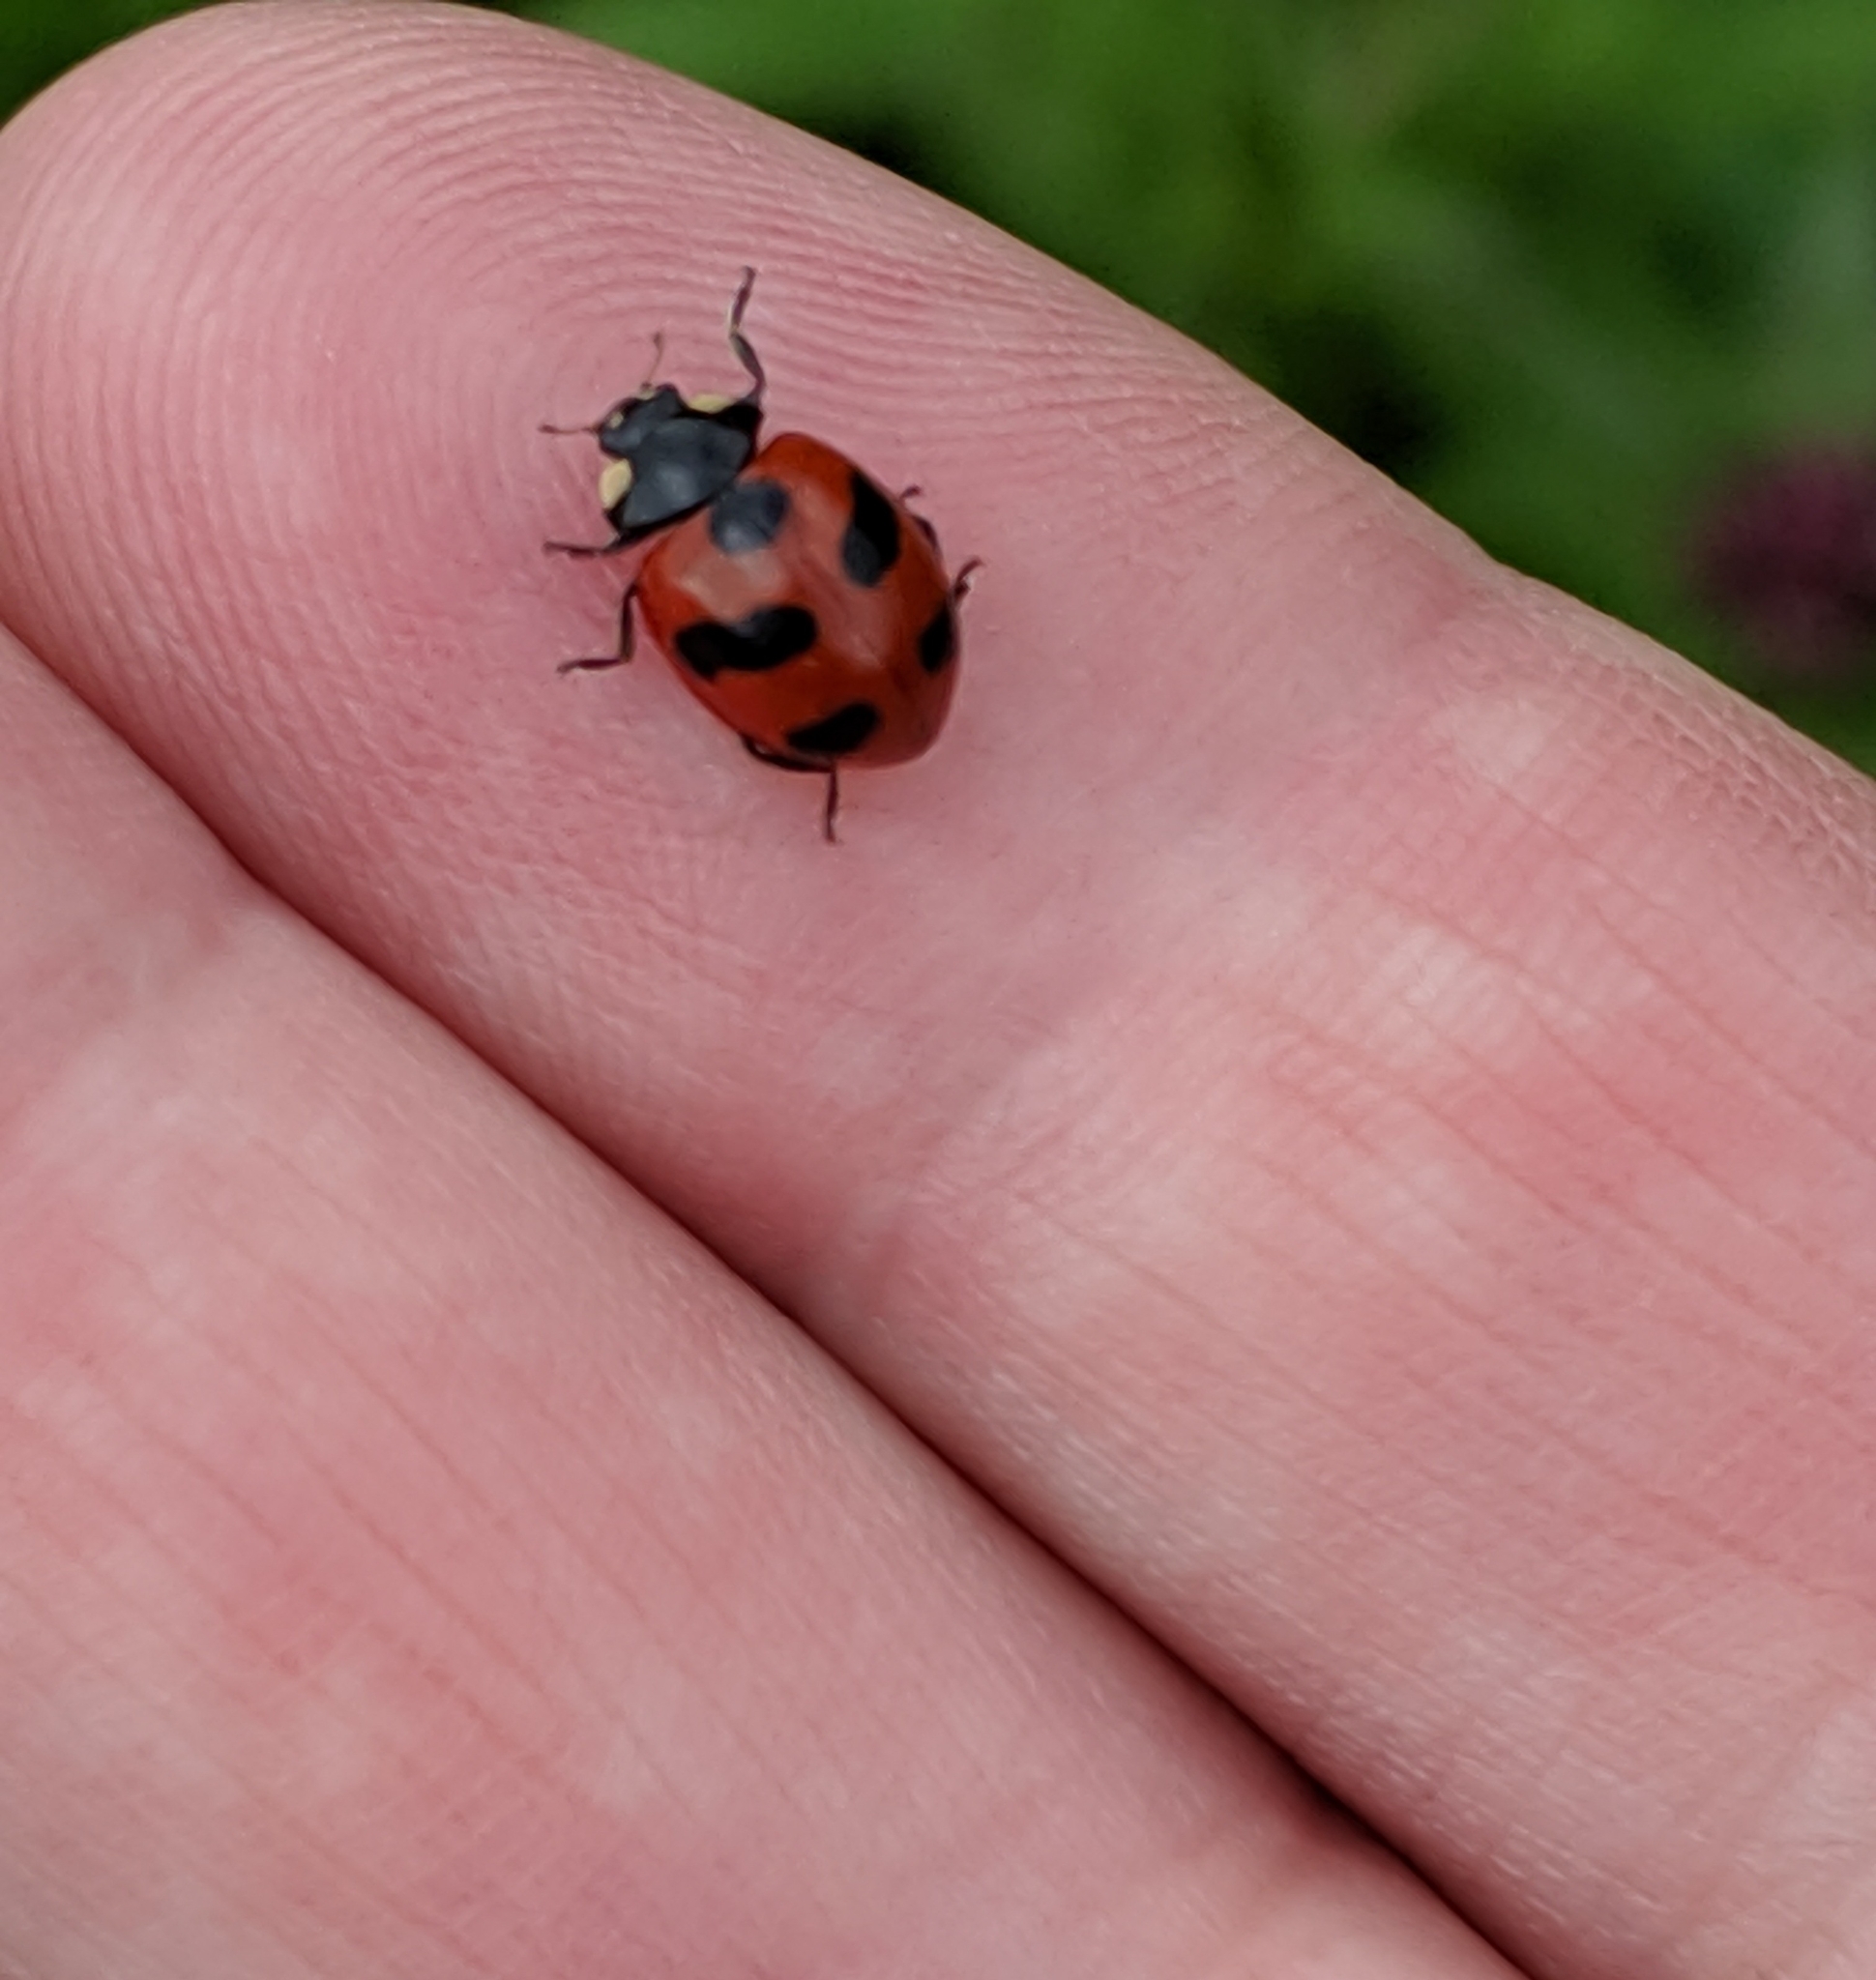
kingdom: Animalia
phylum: Arthropoda
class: Insecta
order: Coleoptera
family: Coccinellidae
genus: Coccinella
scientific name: Coccinella monticola
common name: Mountain lady beetle
